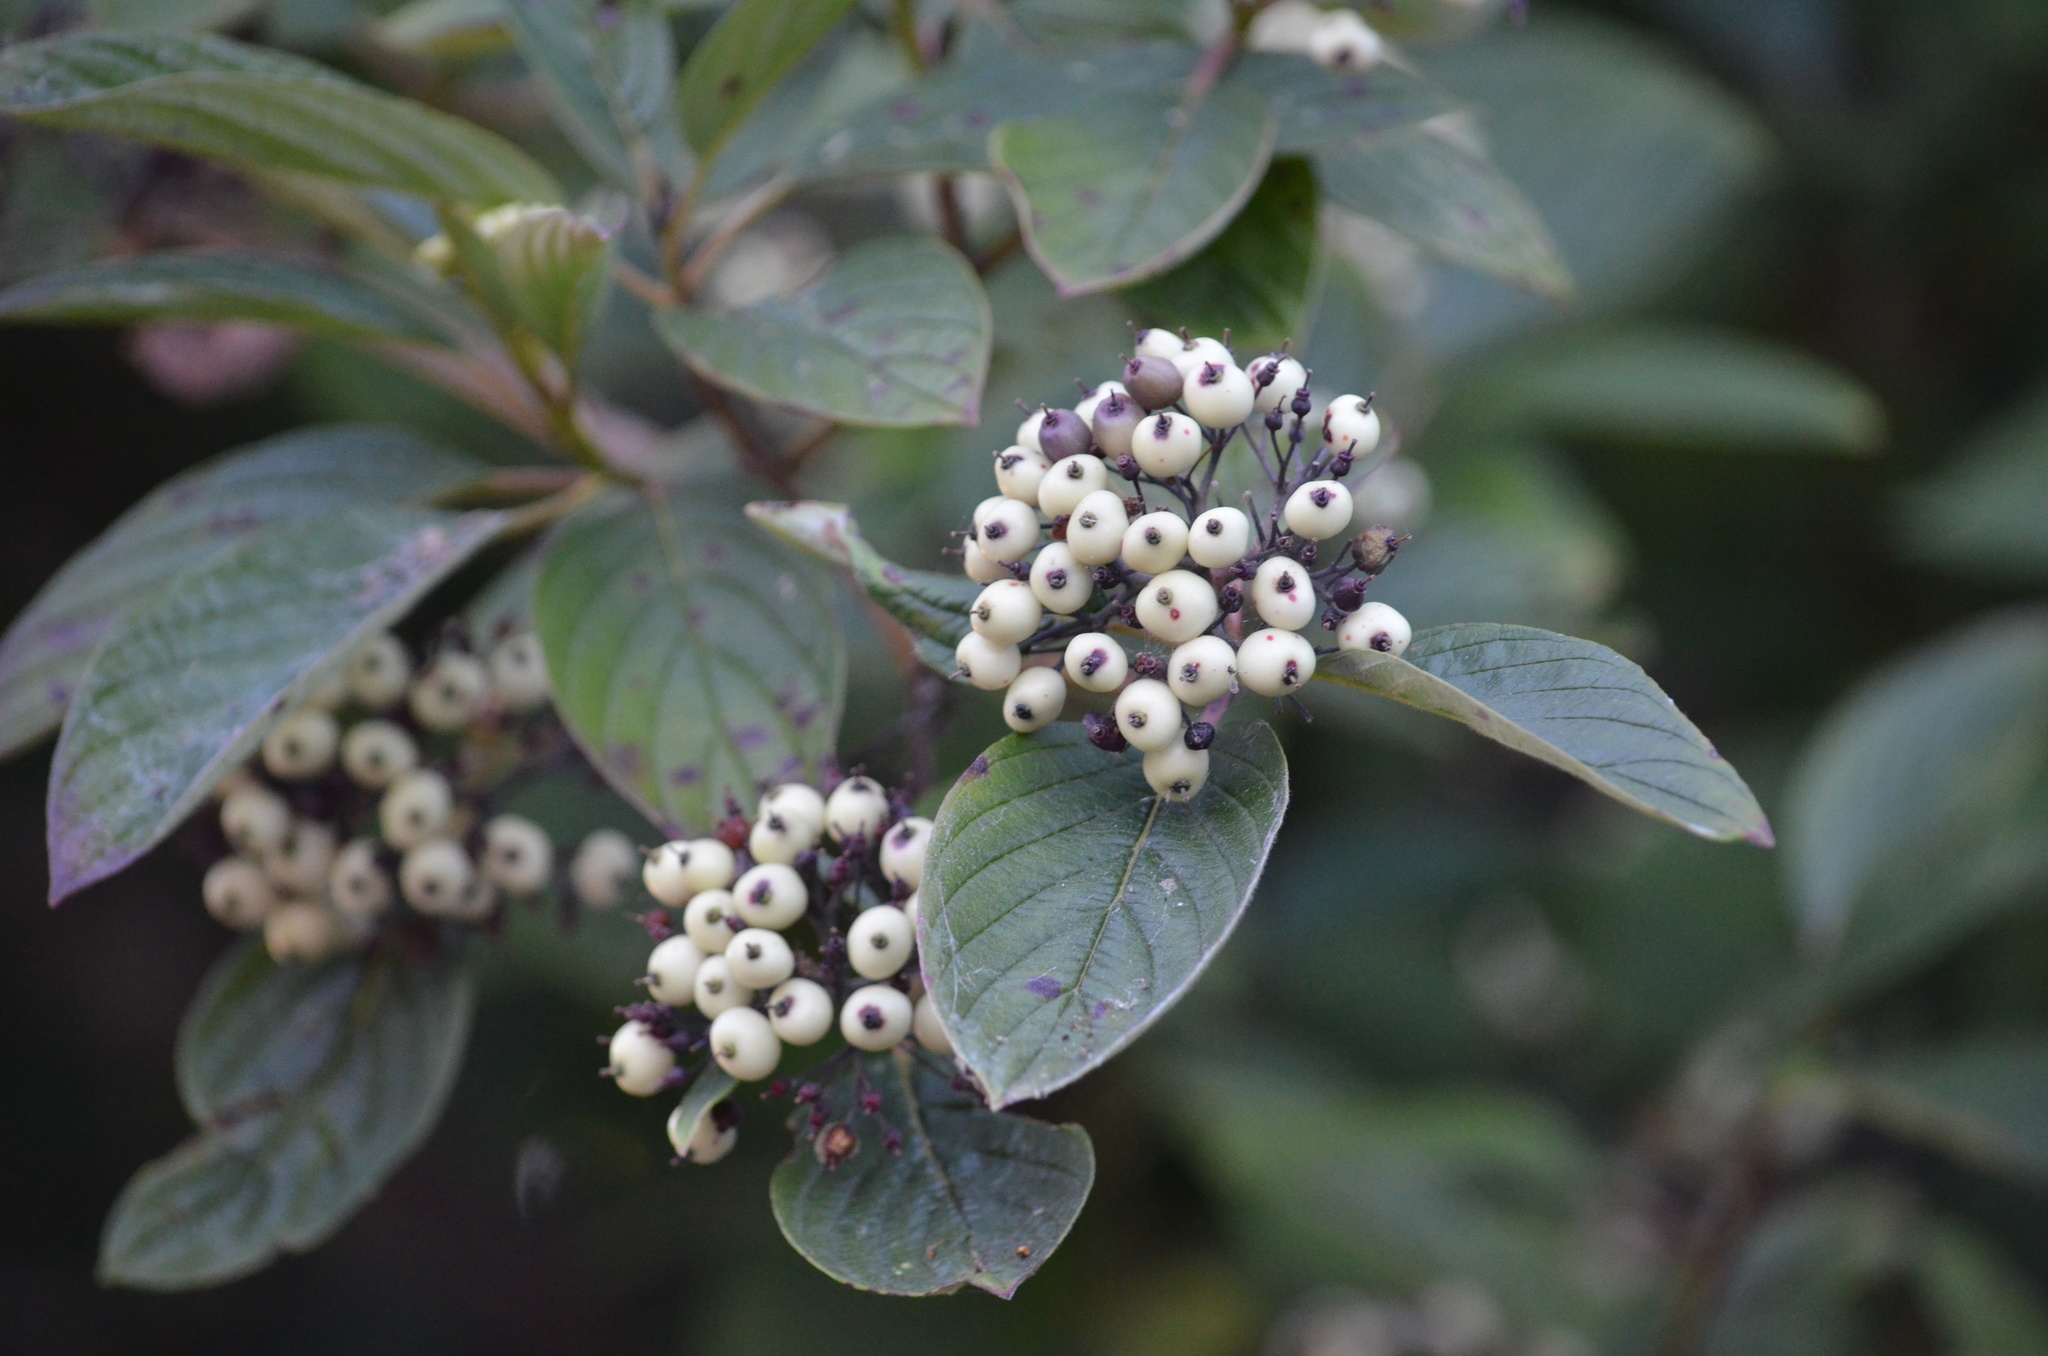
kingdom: Plantae
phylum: Tracheophyta
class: Magnoliopsida
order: Cornales
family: Cornaceae
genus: Cornus
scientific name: Cornus sericea
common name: Red-osier dogwood
